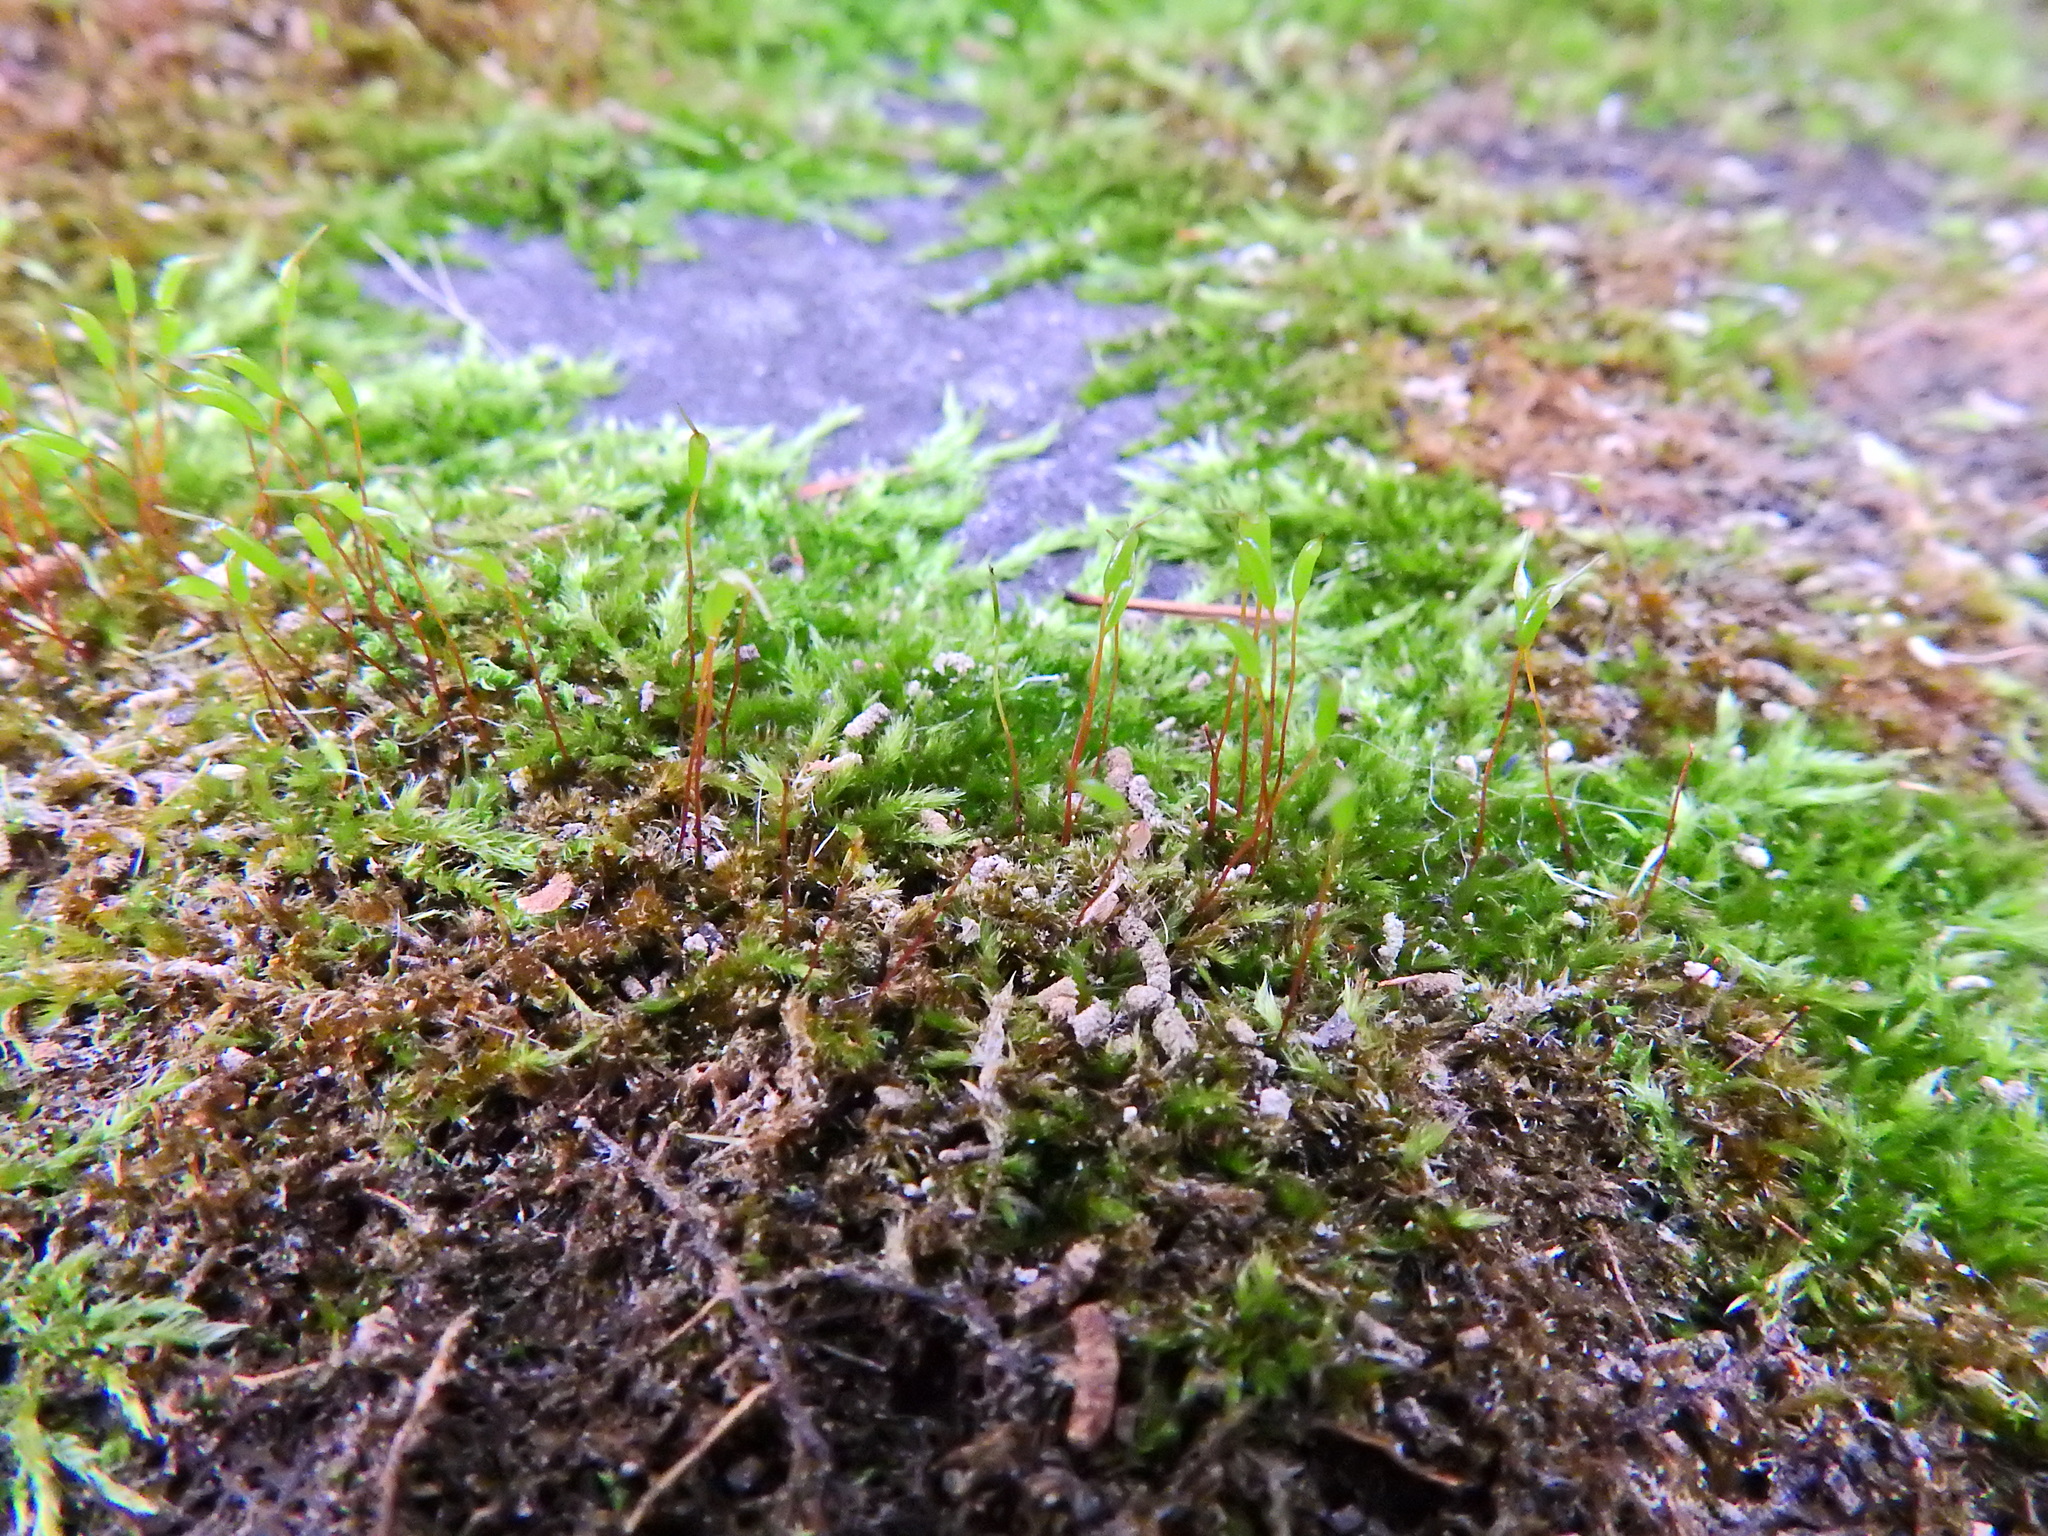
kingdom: Plantae
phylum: Bryophyta
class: Bryopsida
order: Bryales
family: Bryaceae
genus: Rosulabryum
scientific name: Rosulabryum capillare
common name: Capillary thread-moss
